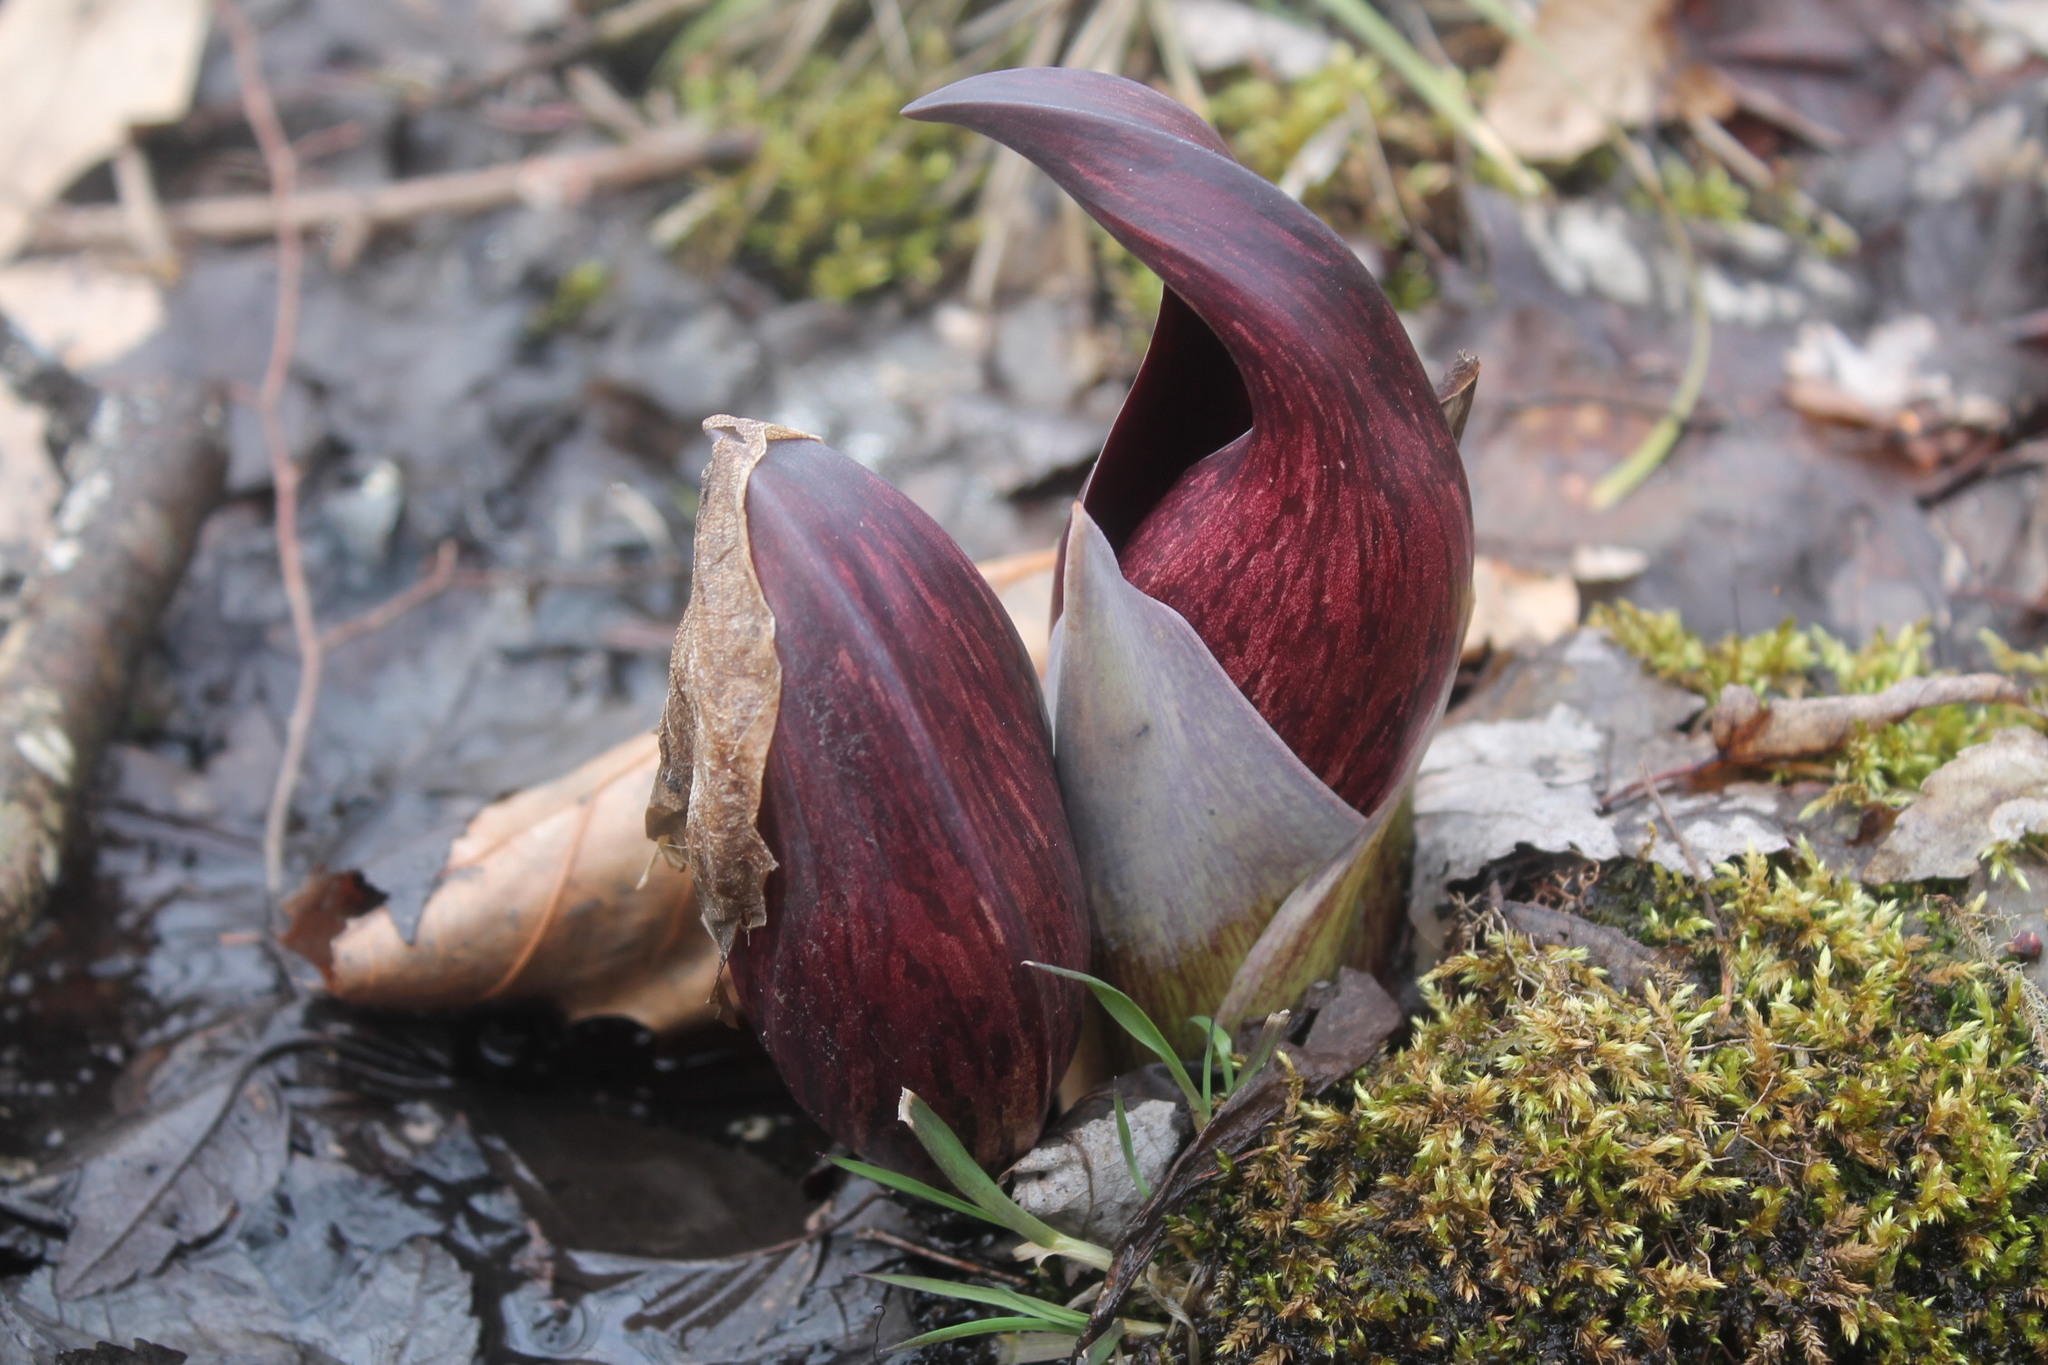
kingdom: Plantae
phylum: Tracheophyta
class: Liliopsida
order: Alismatales
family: Araceae
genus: Symplocarpus
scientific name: Symplocarpus foetidus
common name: Eastern skunk cabbage
